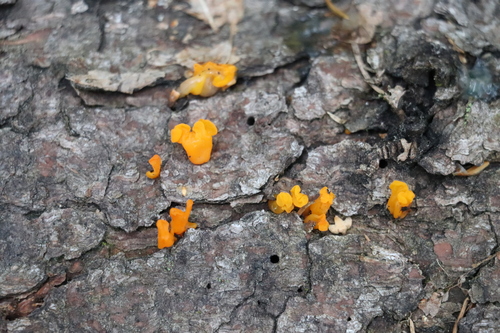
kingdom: Fungi
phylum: Basidiomycota
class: Dacrymycetes
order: Dacrymycetales
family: Dacrymycetaceae
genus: Dacrymyces
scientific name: Dacrymyces chrysospermus
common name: Orange jelly spot
